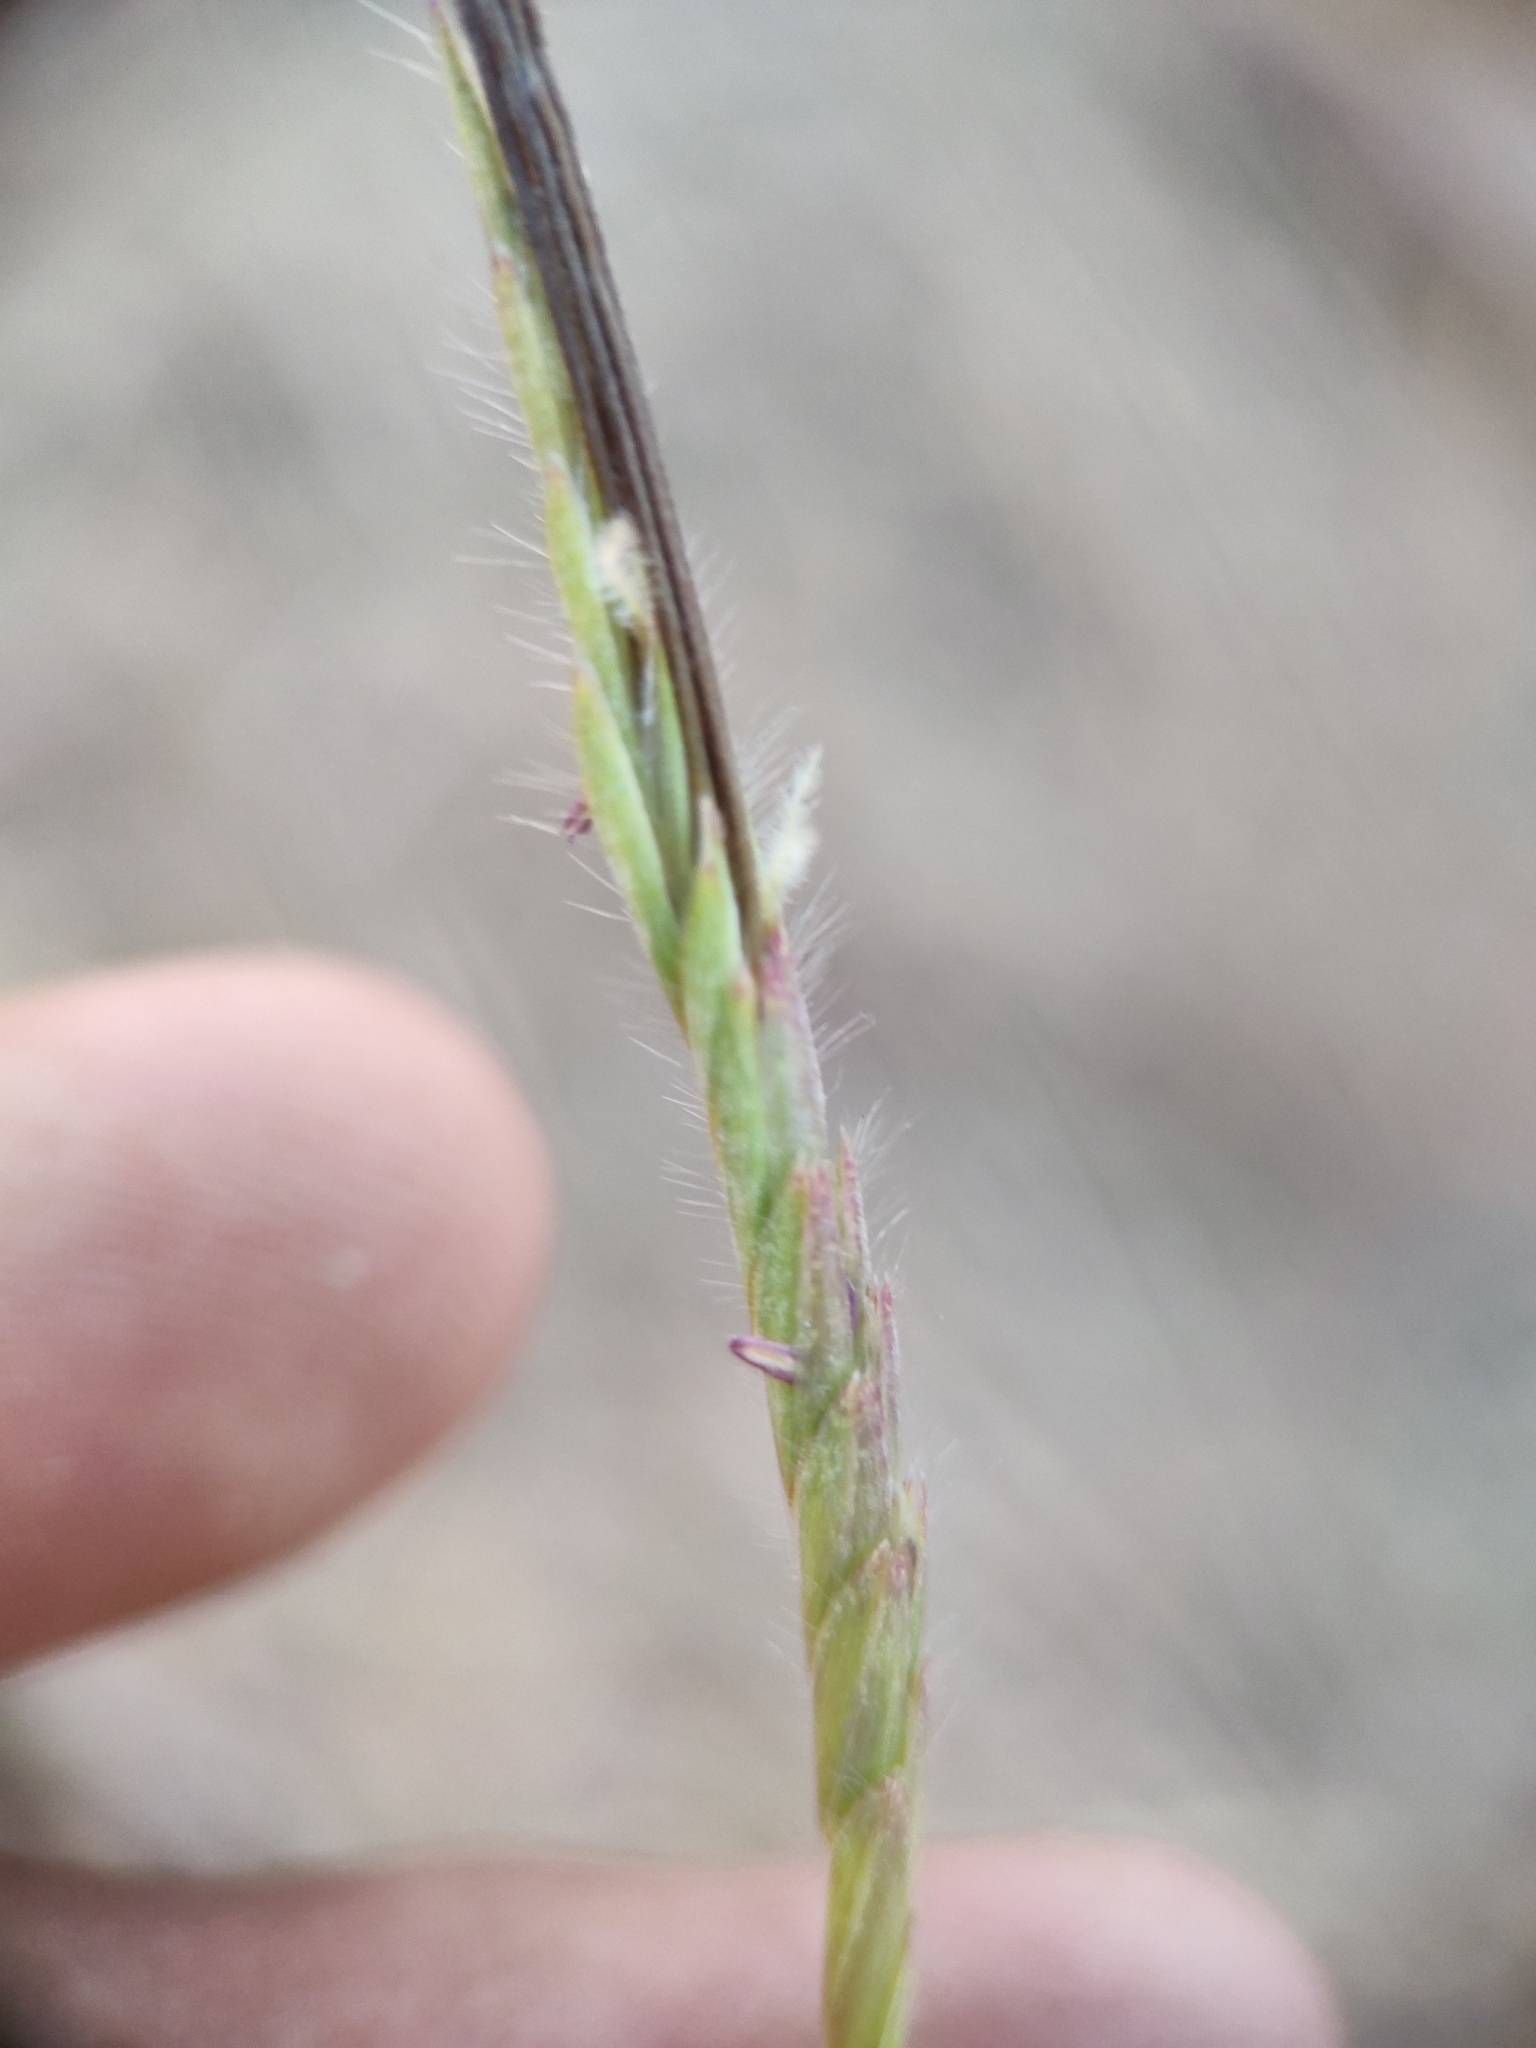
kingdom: Plantae
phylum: Tracheophyta
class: Liliopsida
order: Poales
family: Poaceae
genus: Heteropogon
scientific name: Heteropogon contortus
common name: Tanglehead
